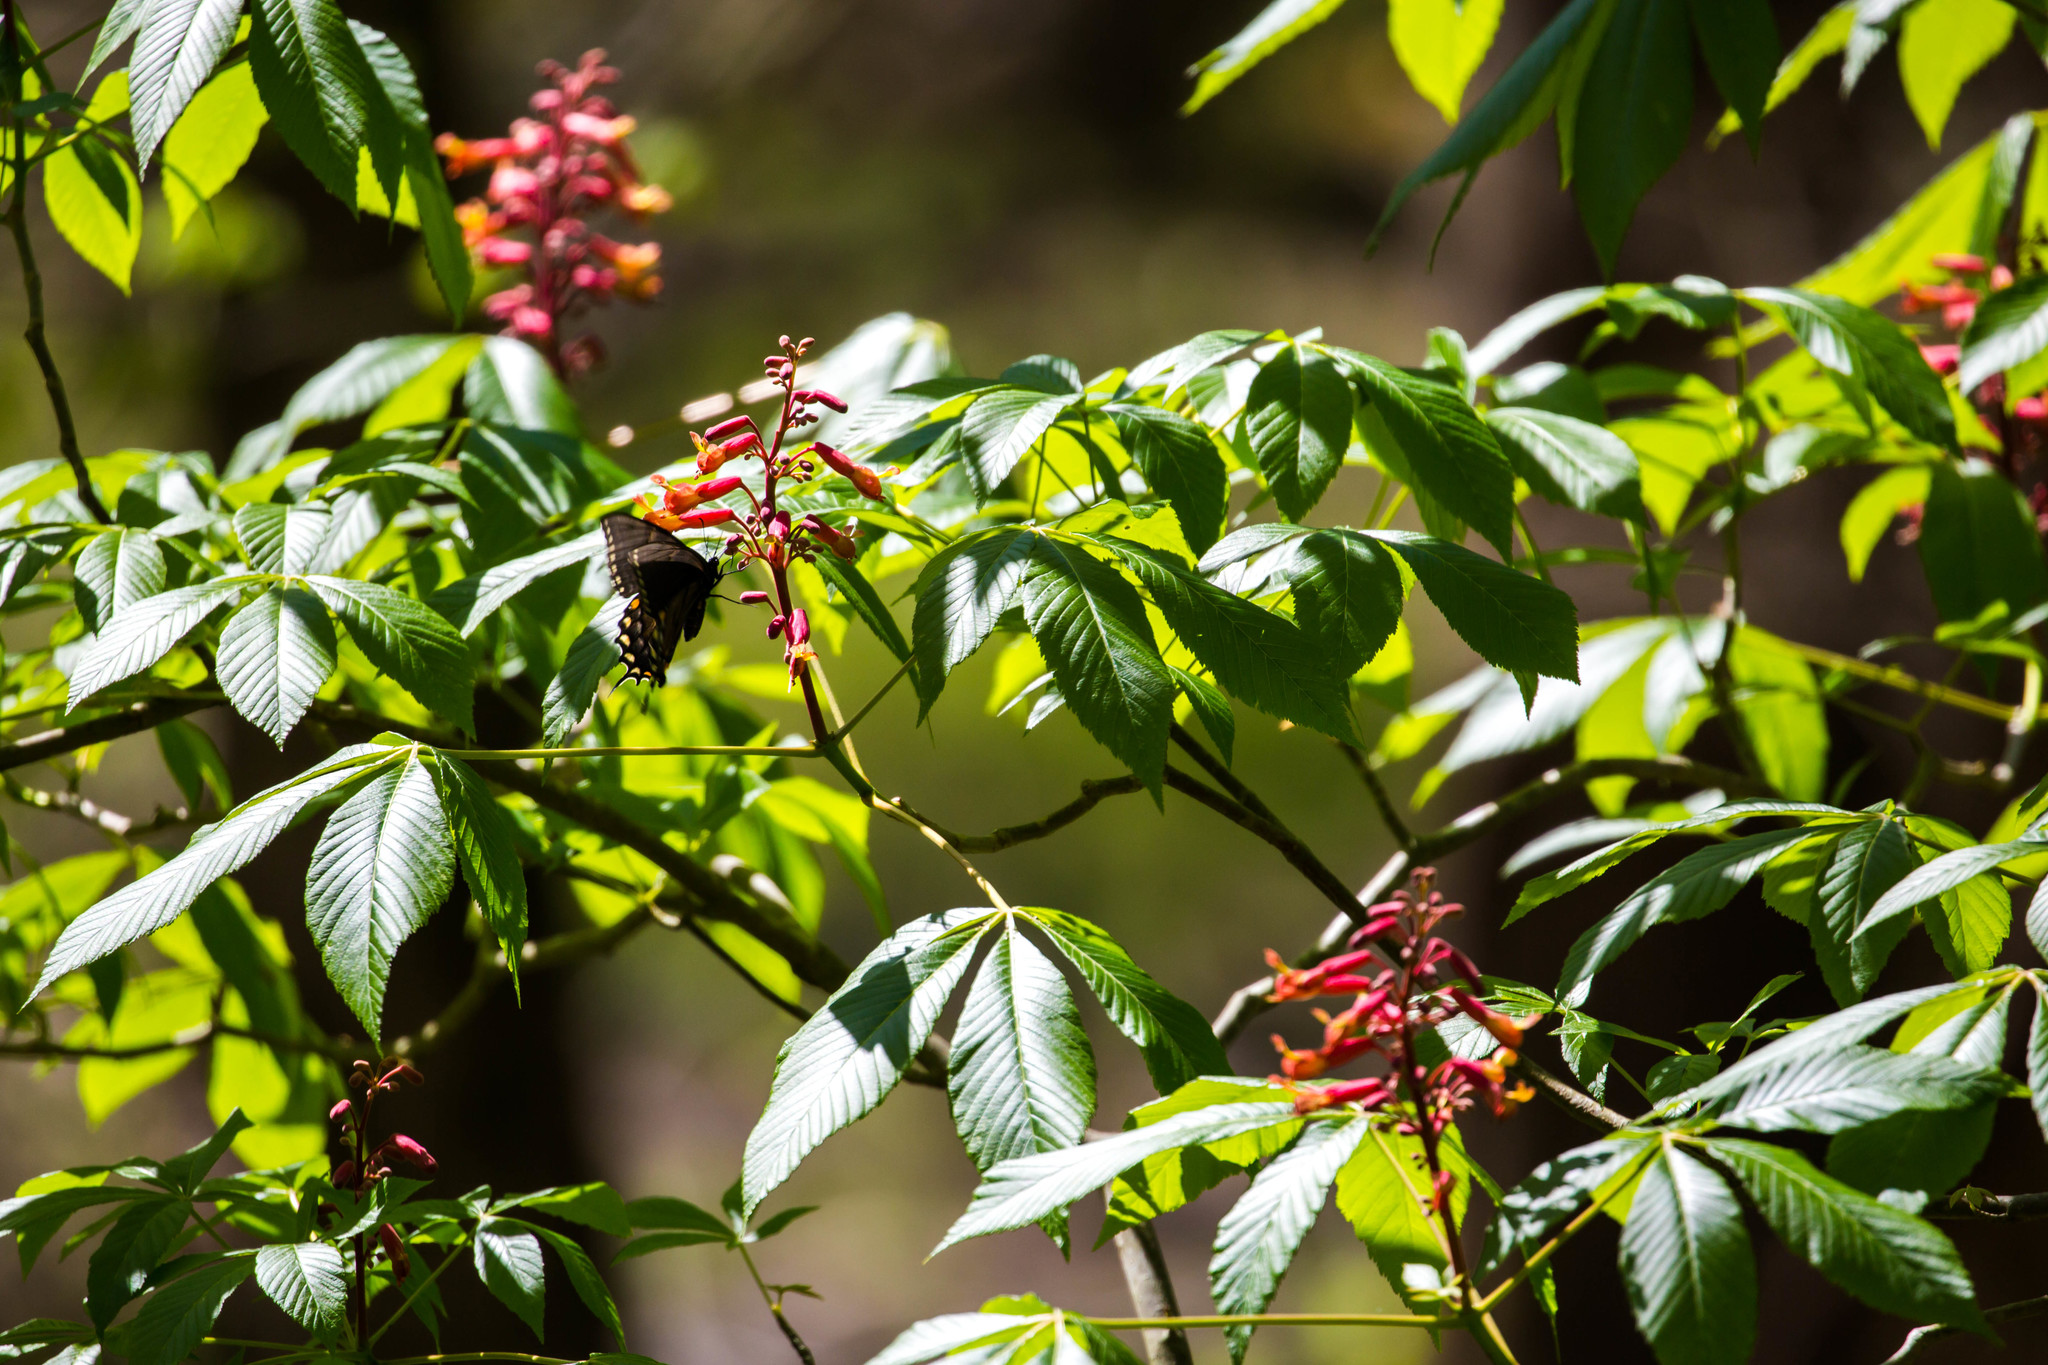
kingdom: Animalia
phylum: Arthropoda
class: Insecta
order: Lepidoptera
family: Papilionidae
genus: Papilio
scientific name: Papilio glaucus
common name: Tiger swallowtail
